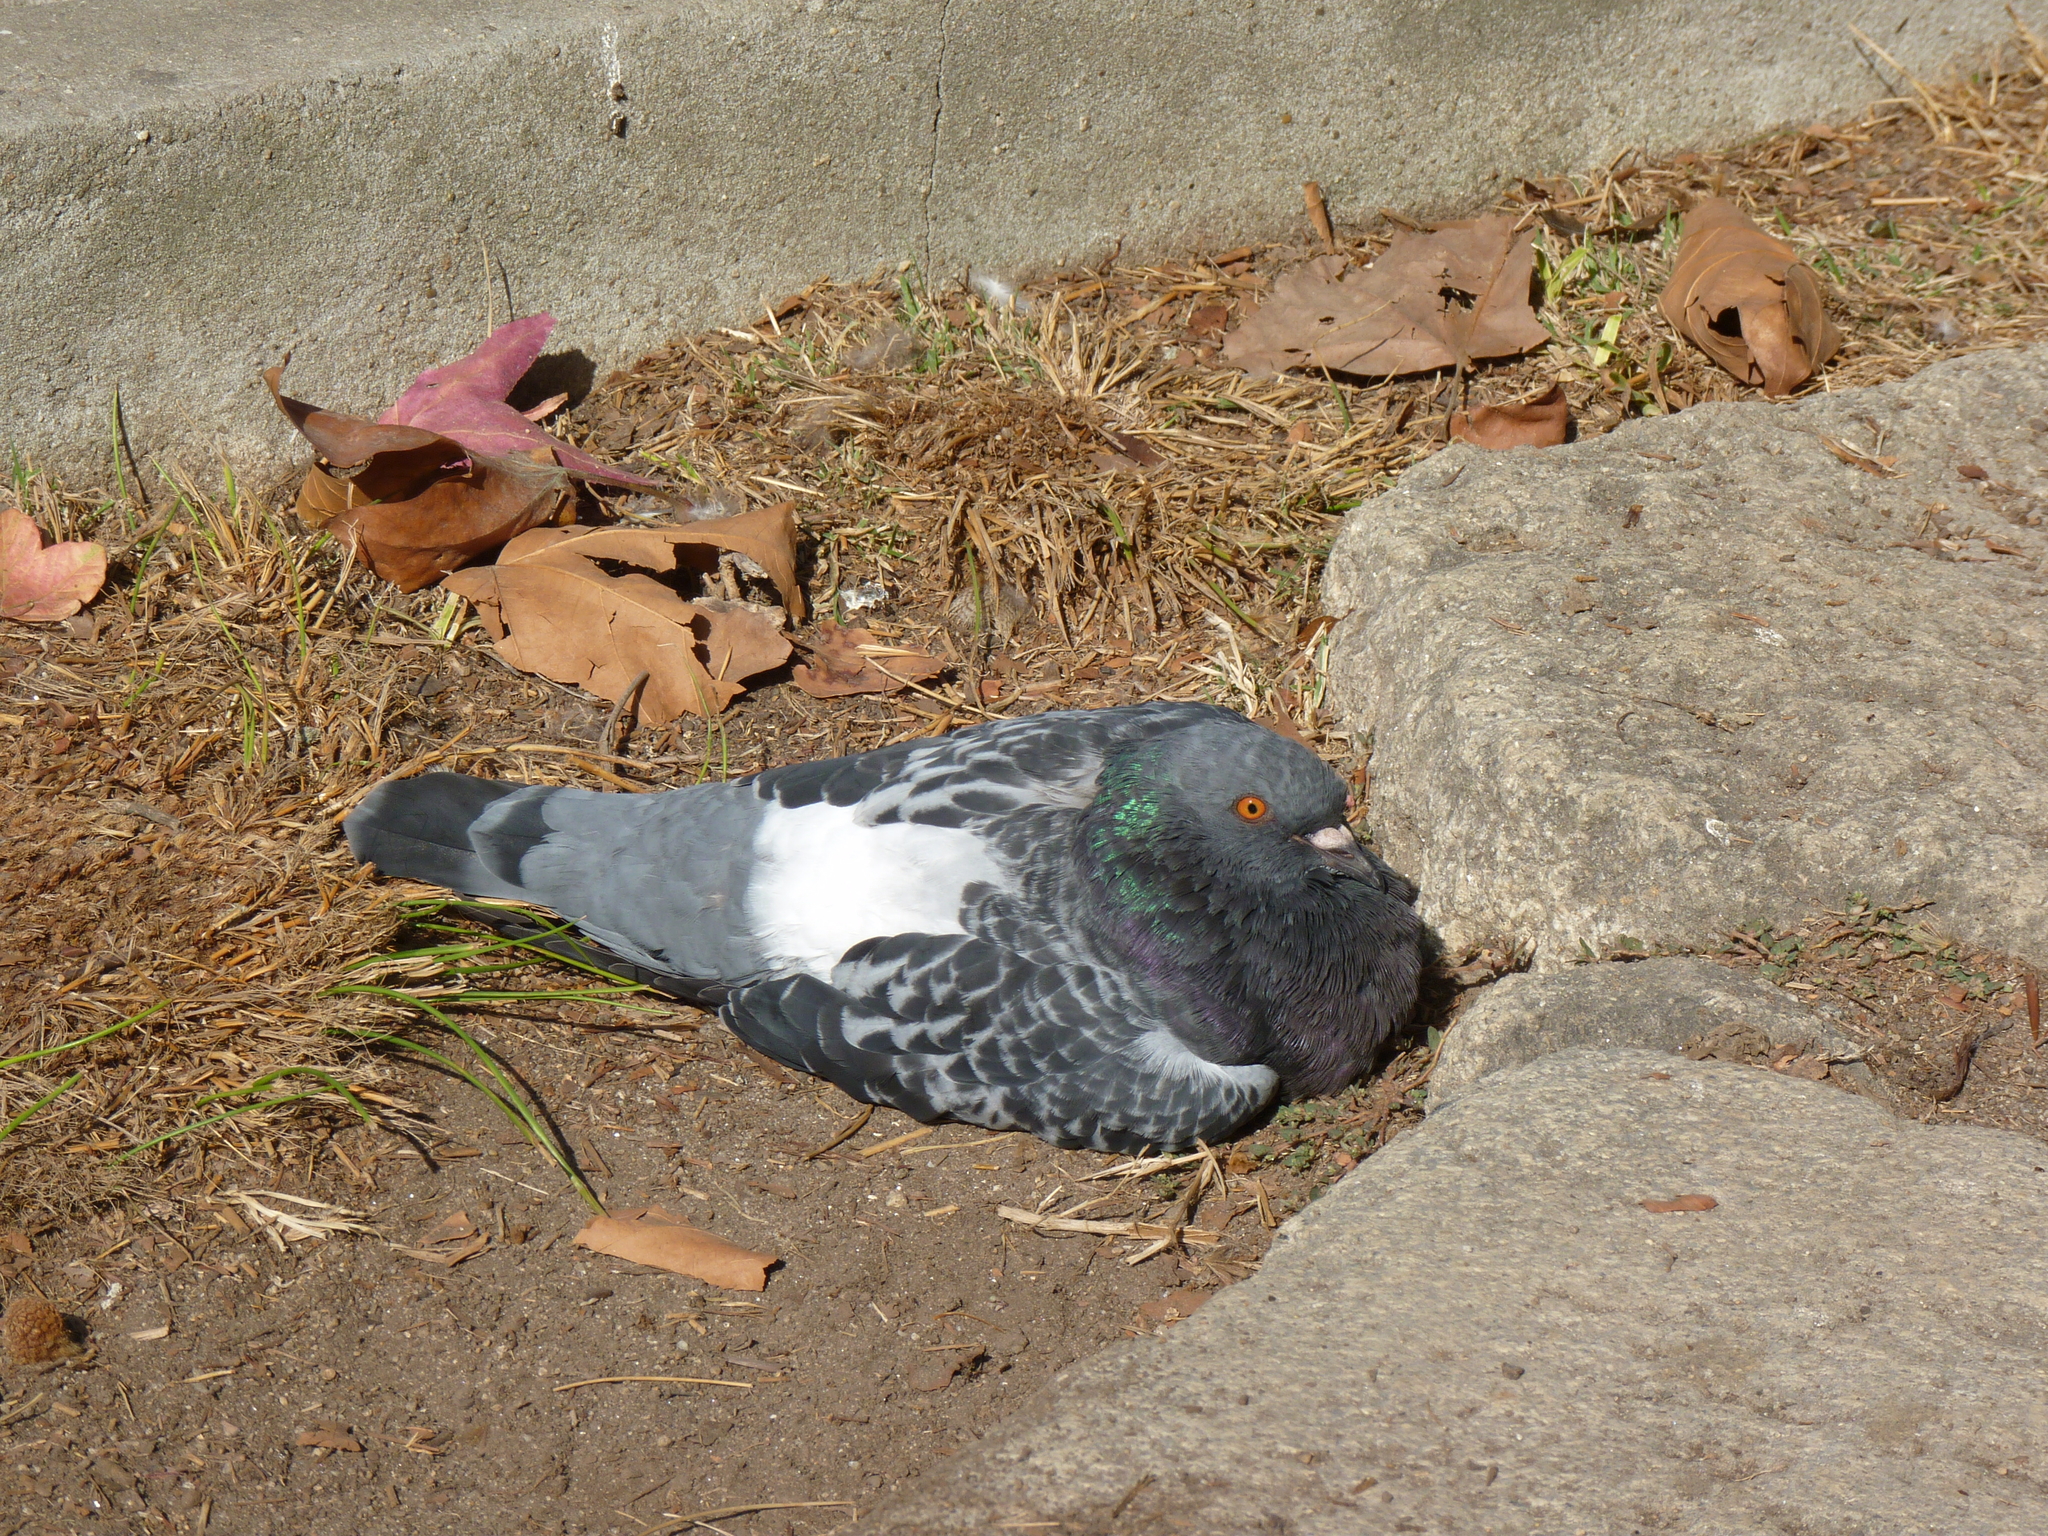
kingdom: Animalia
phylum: Chordata
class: Aves
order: Columbiformes
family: Columbidae
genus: Columba
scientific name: Columba livia
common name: Rock pigeon
